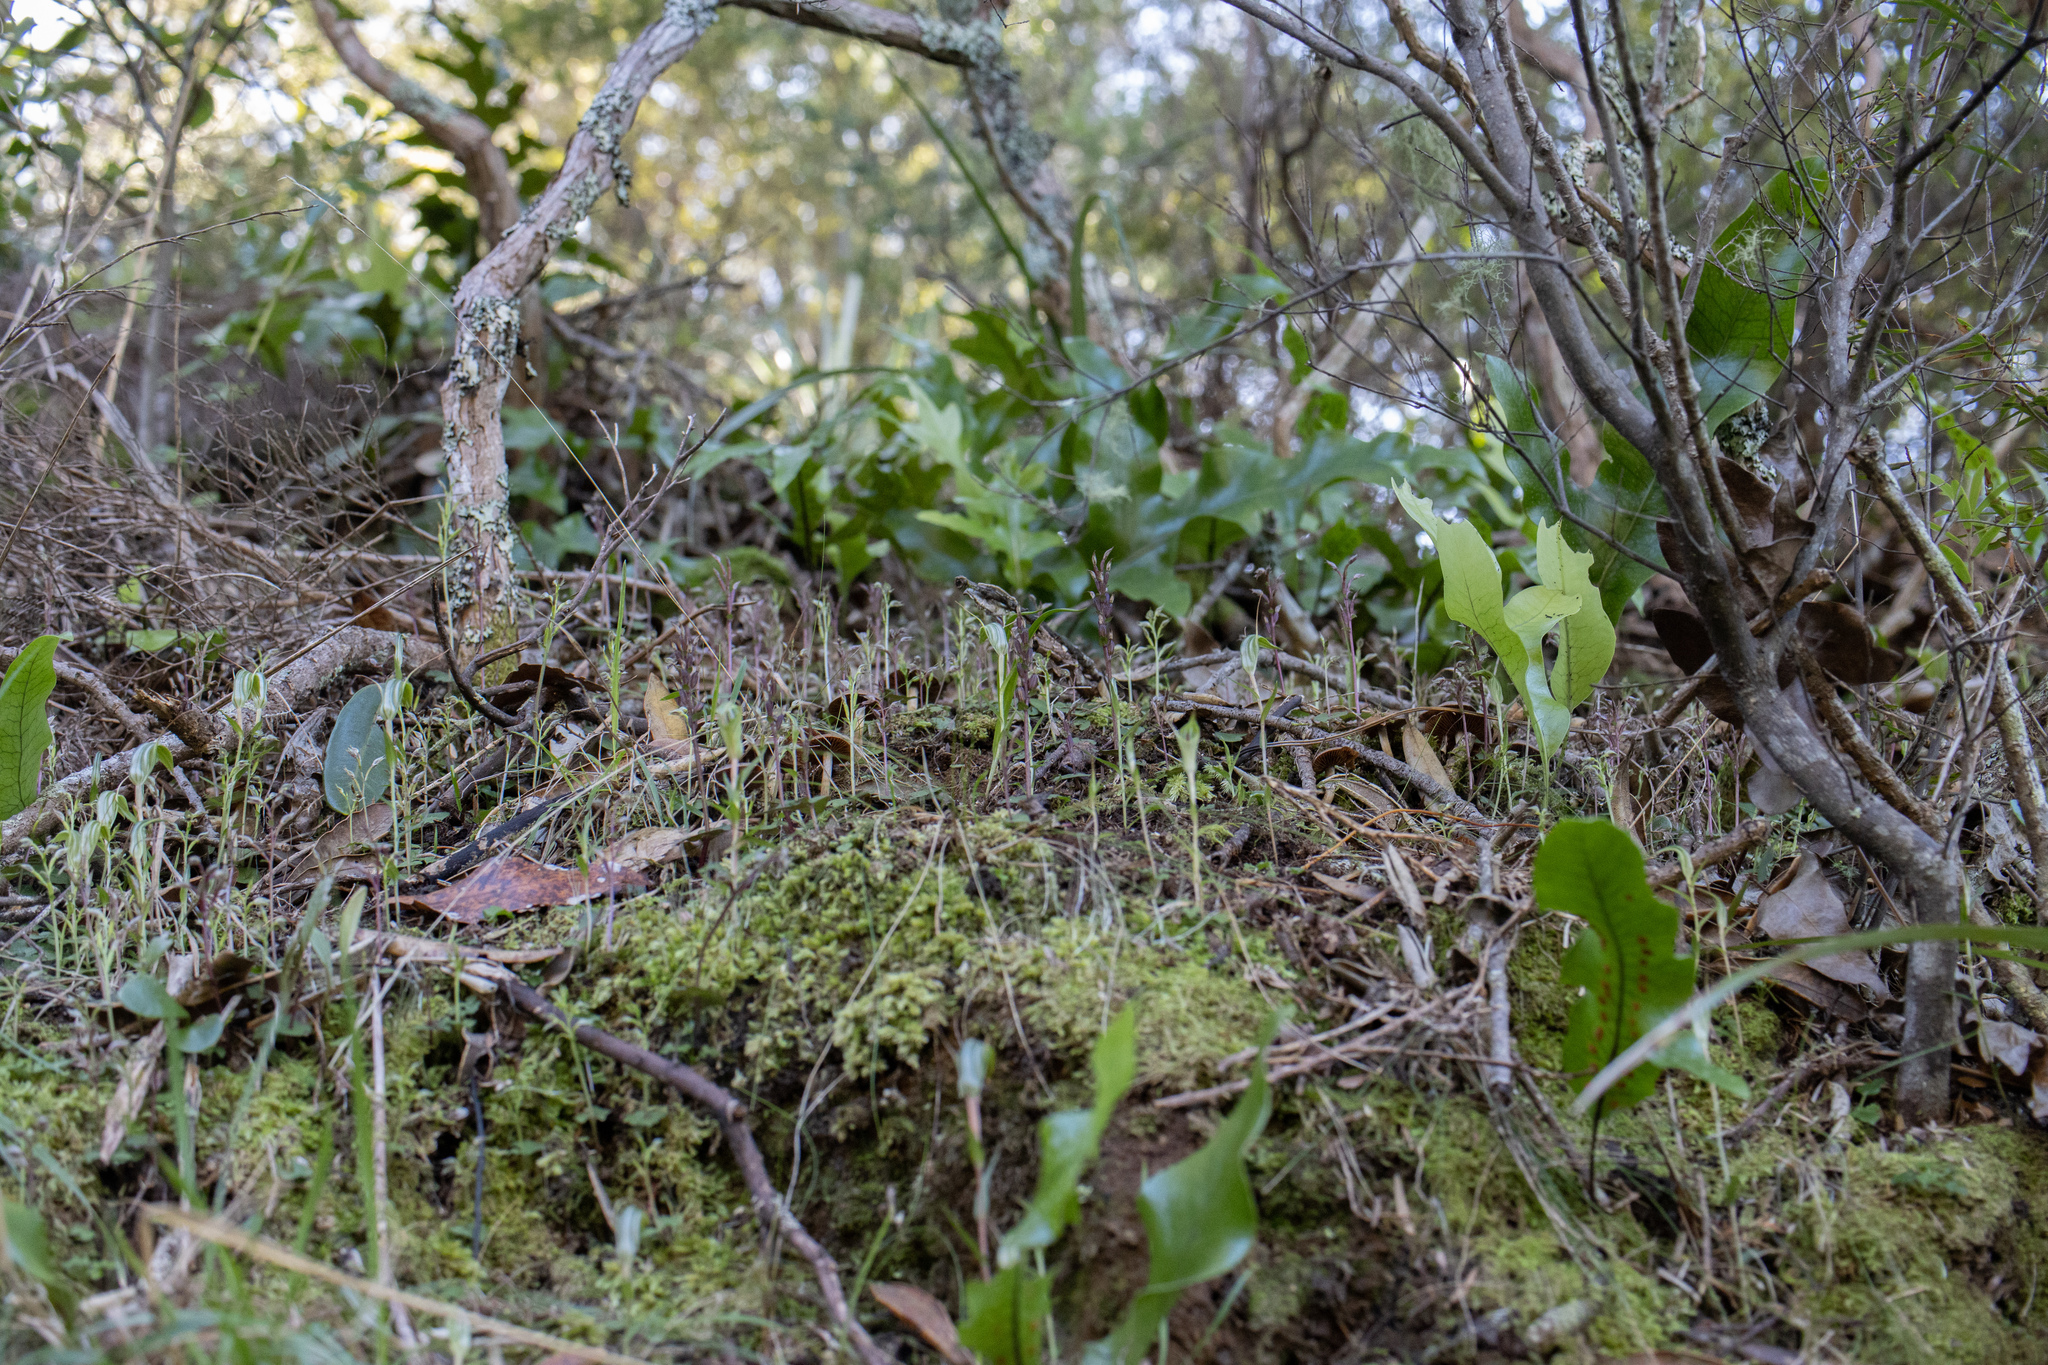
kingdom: Plantae
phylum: Tracheophyta
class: Liliopsida
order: Asparagales
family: Orchidaceae
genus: Acianthus
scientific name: Acianthus sinclairii
